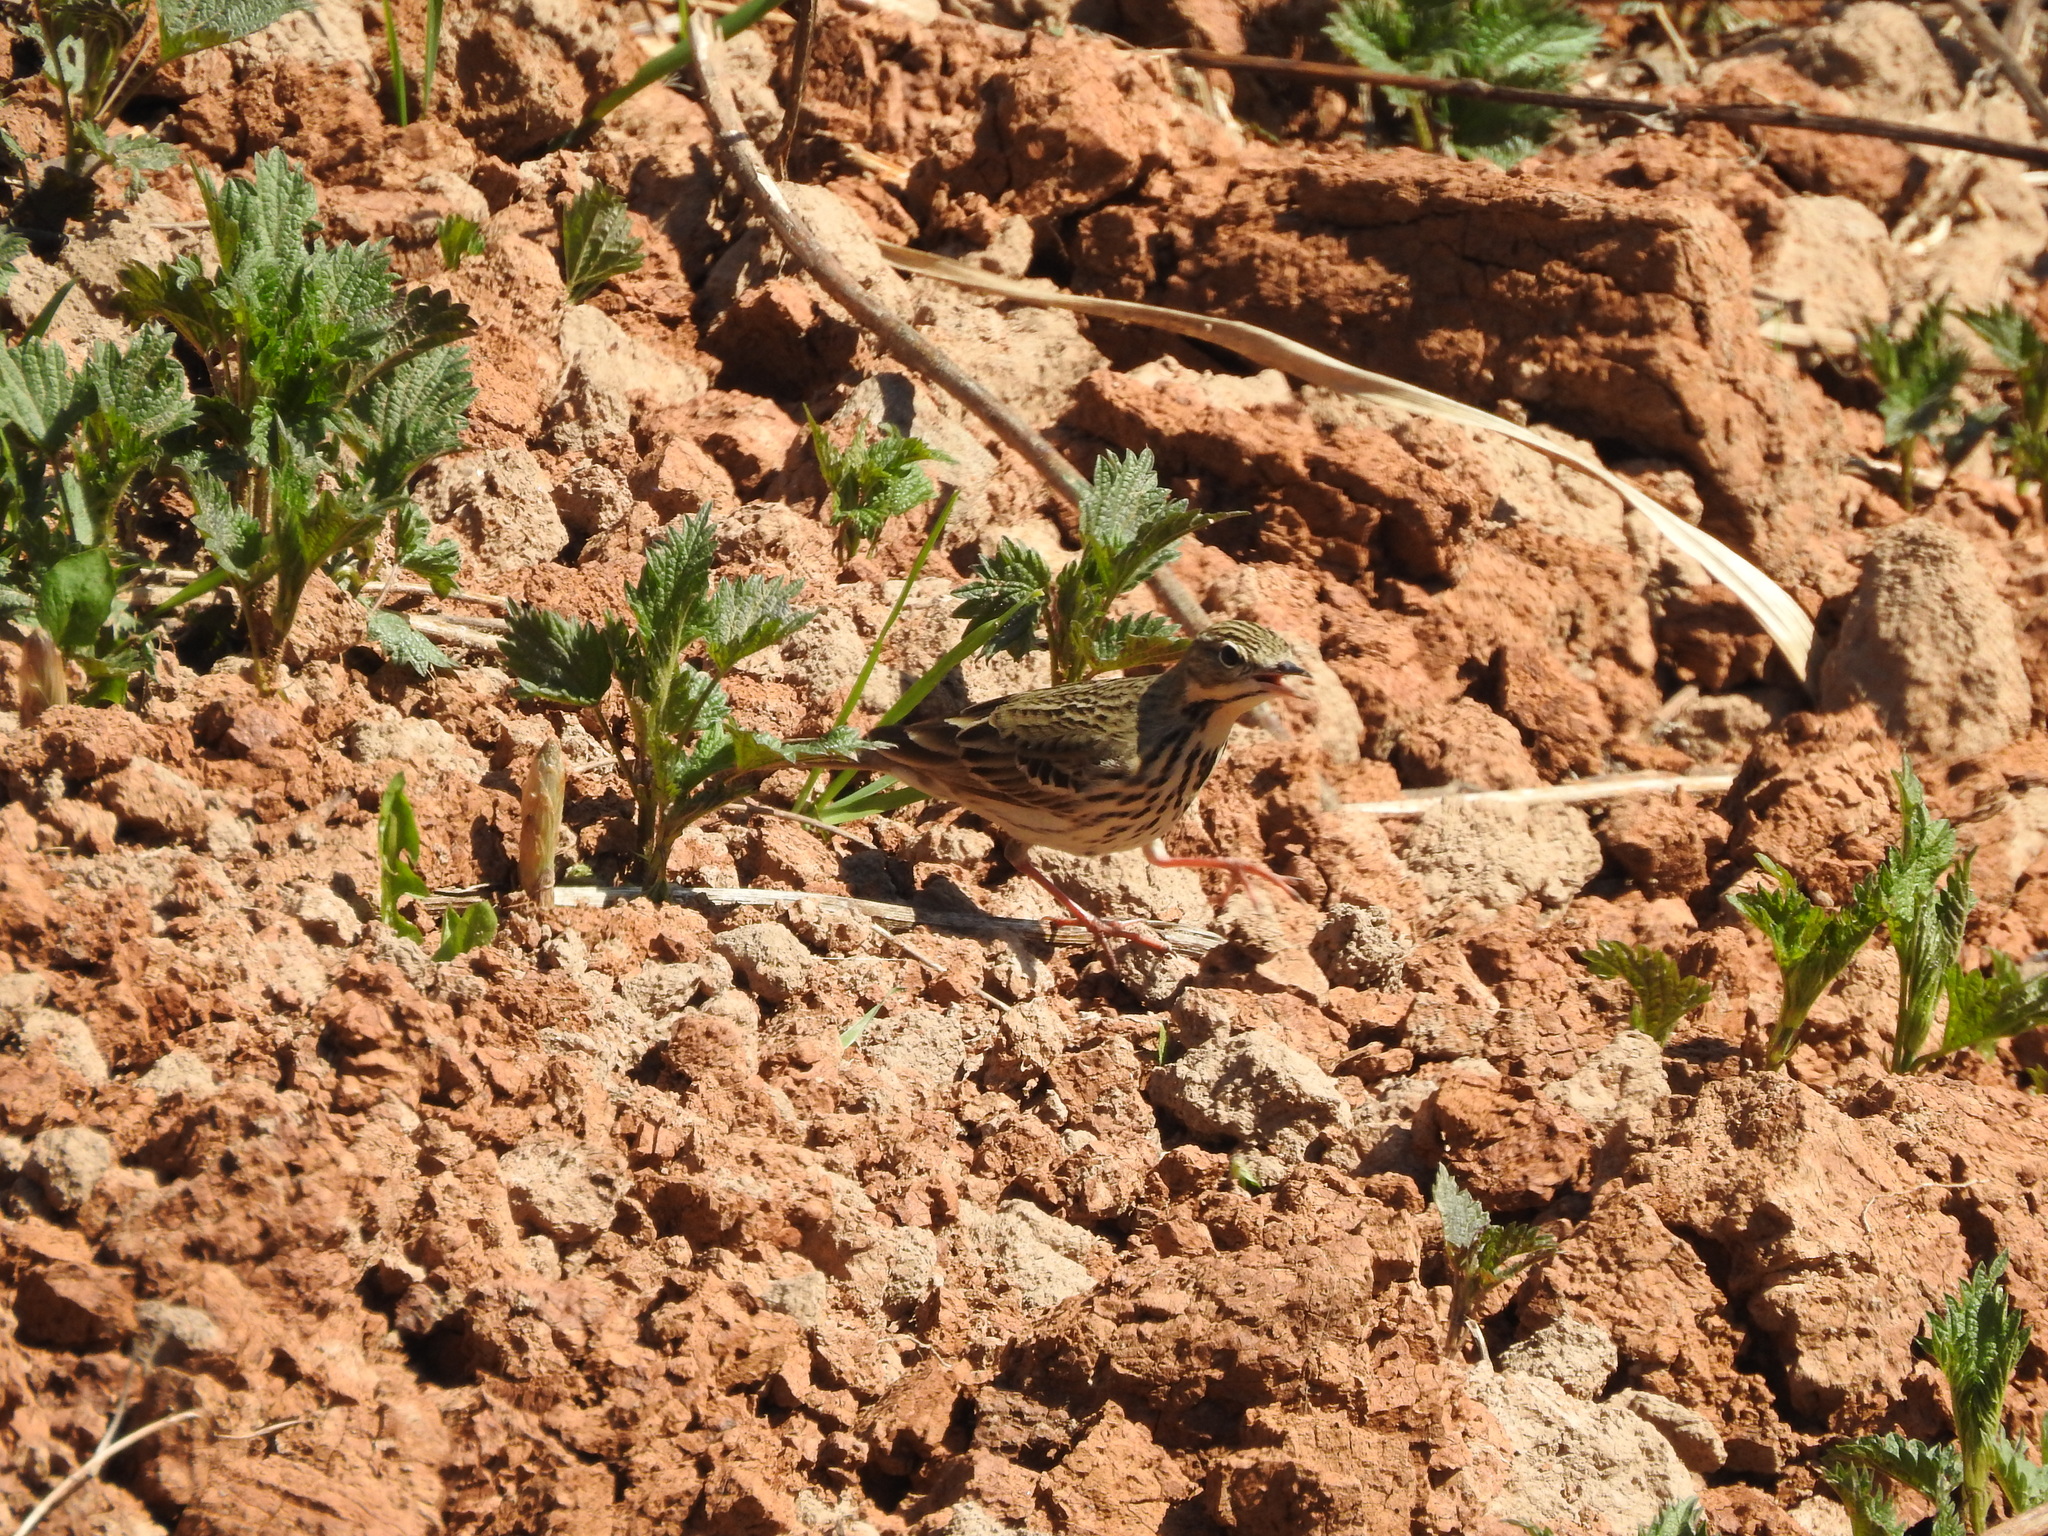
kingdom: Animalia
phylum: Chordata
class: Aves
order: Passeriformes
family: Motacillidae
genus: Anthus
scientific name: Anthus trivialis
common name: Tree pipit
